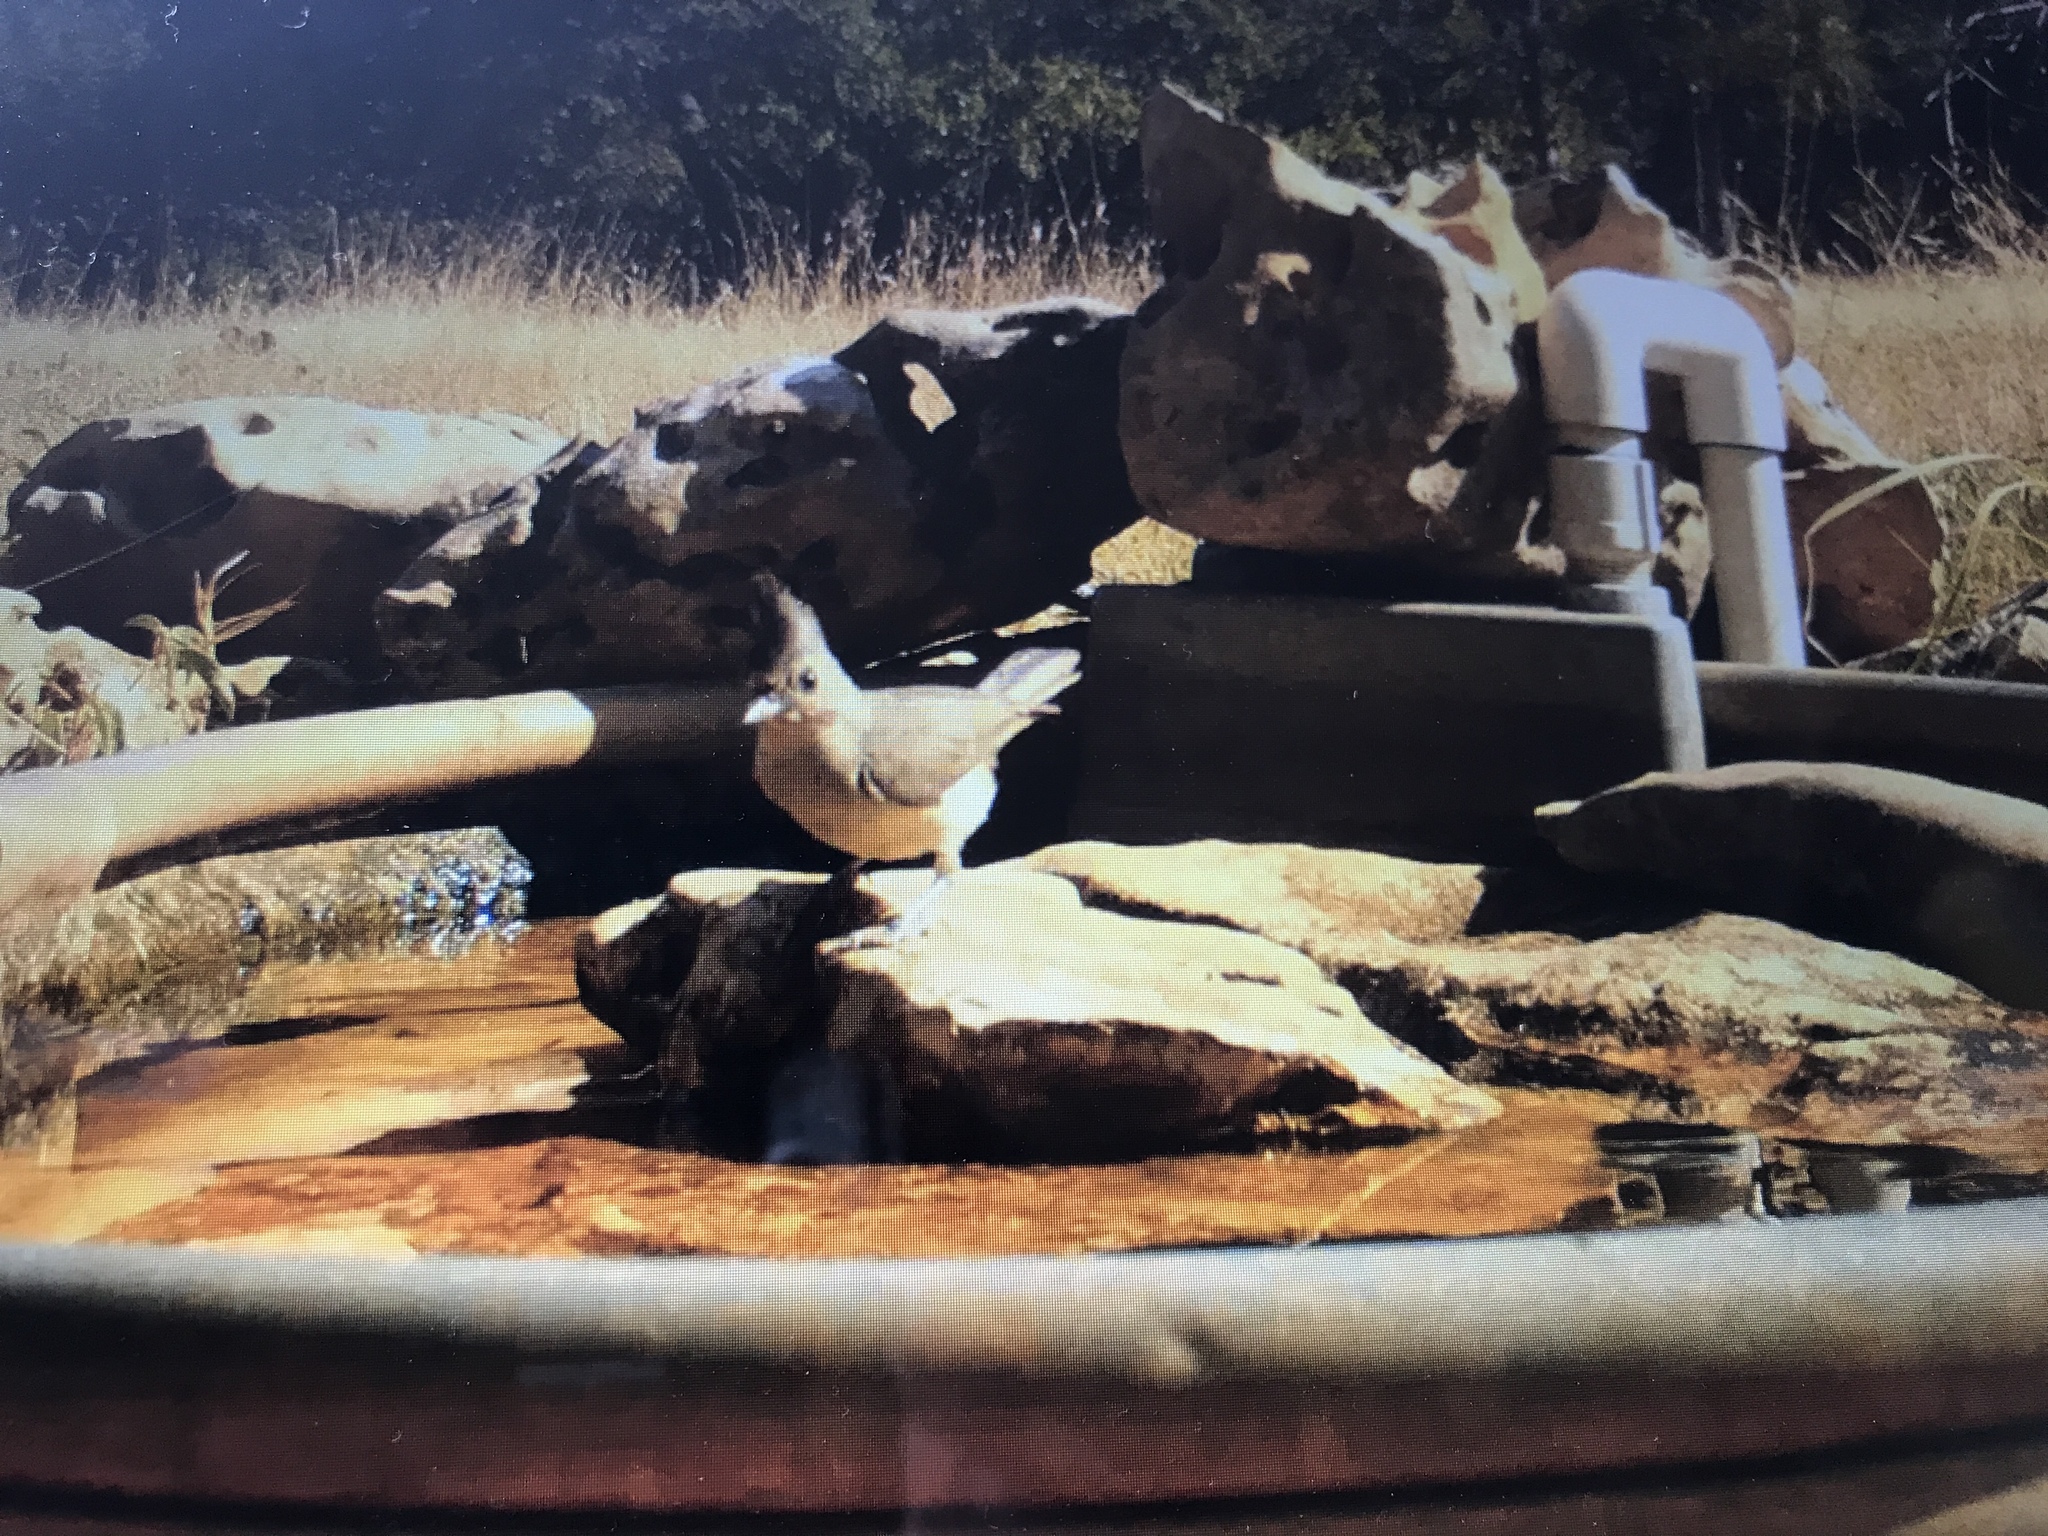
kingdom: Animalia
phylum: Chordata
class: Aves
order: Passeriformes
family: Paridae
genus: Baeolophus
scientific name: Baeolophus atricristatus
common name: Black-crested titmouse
